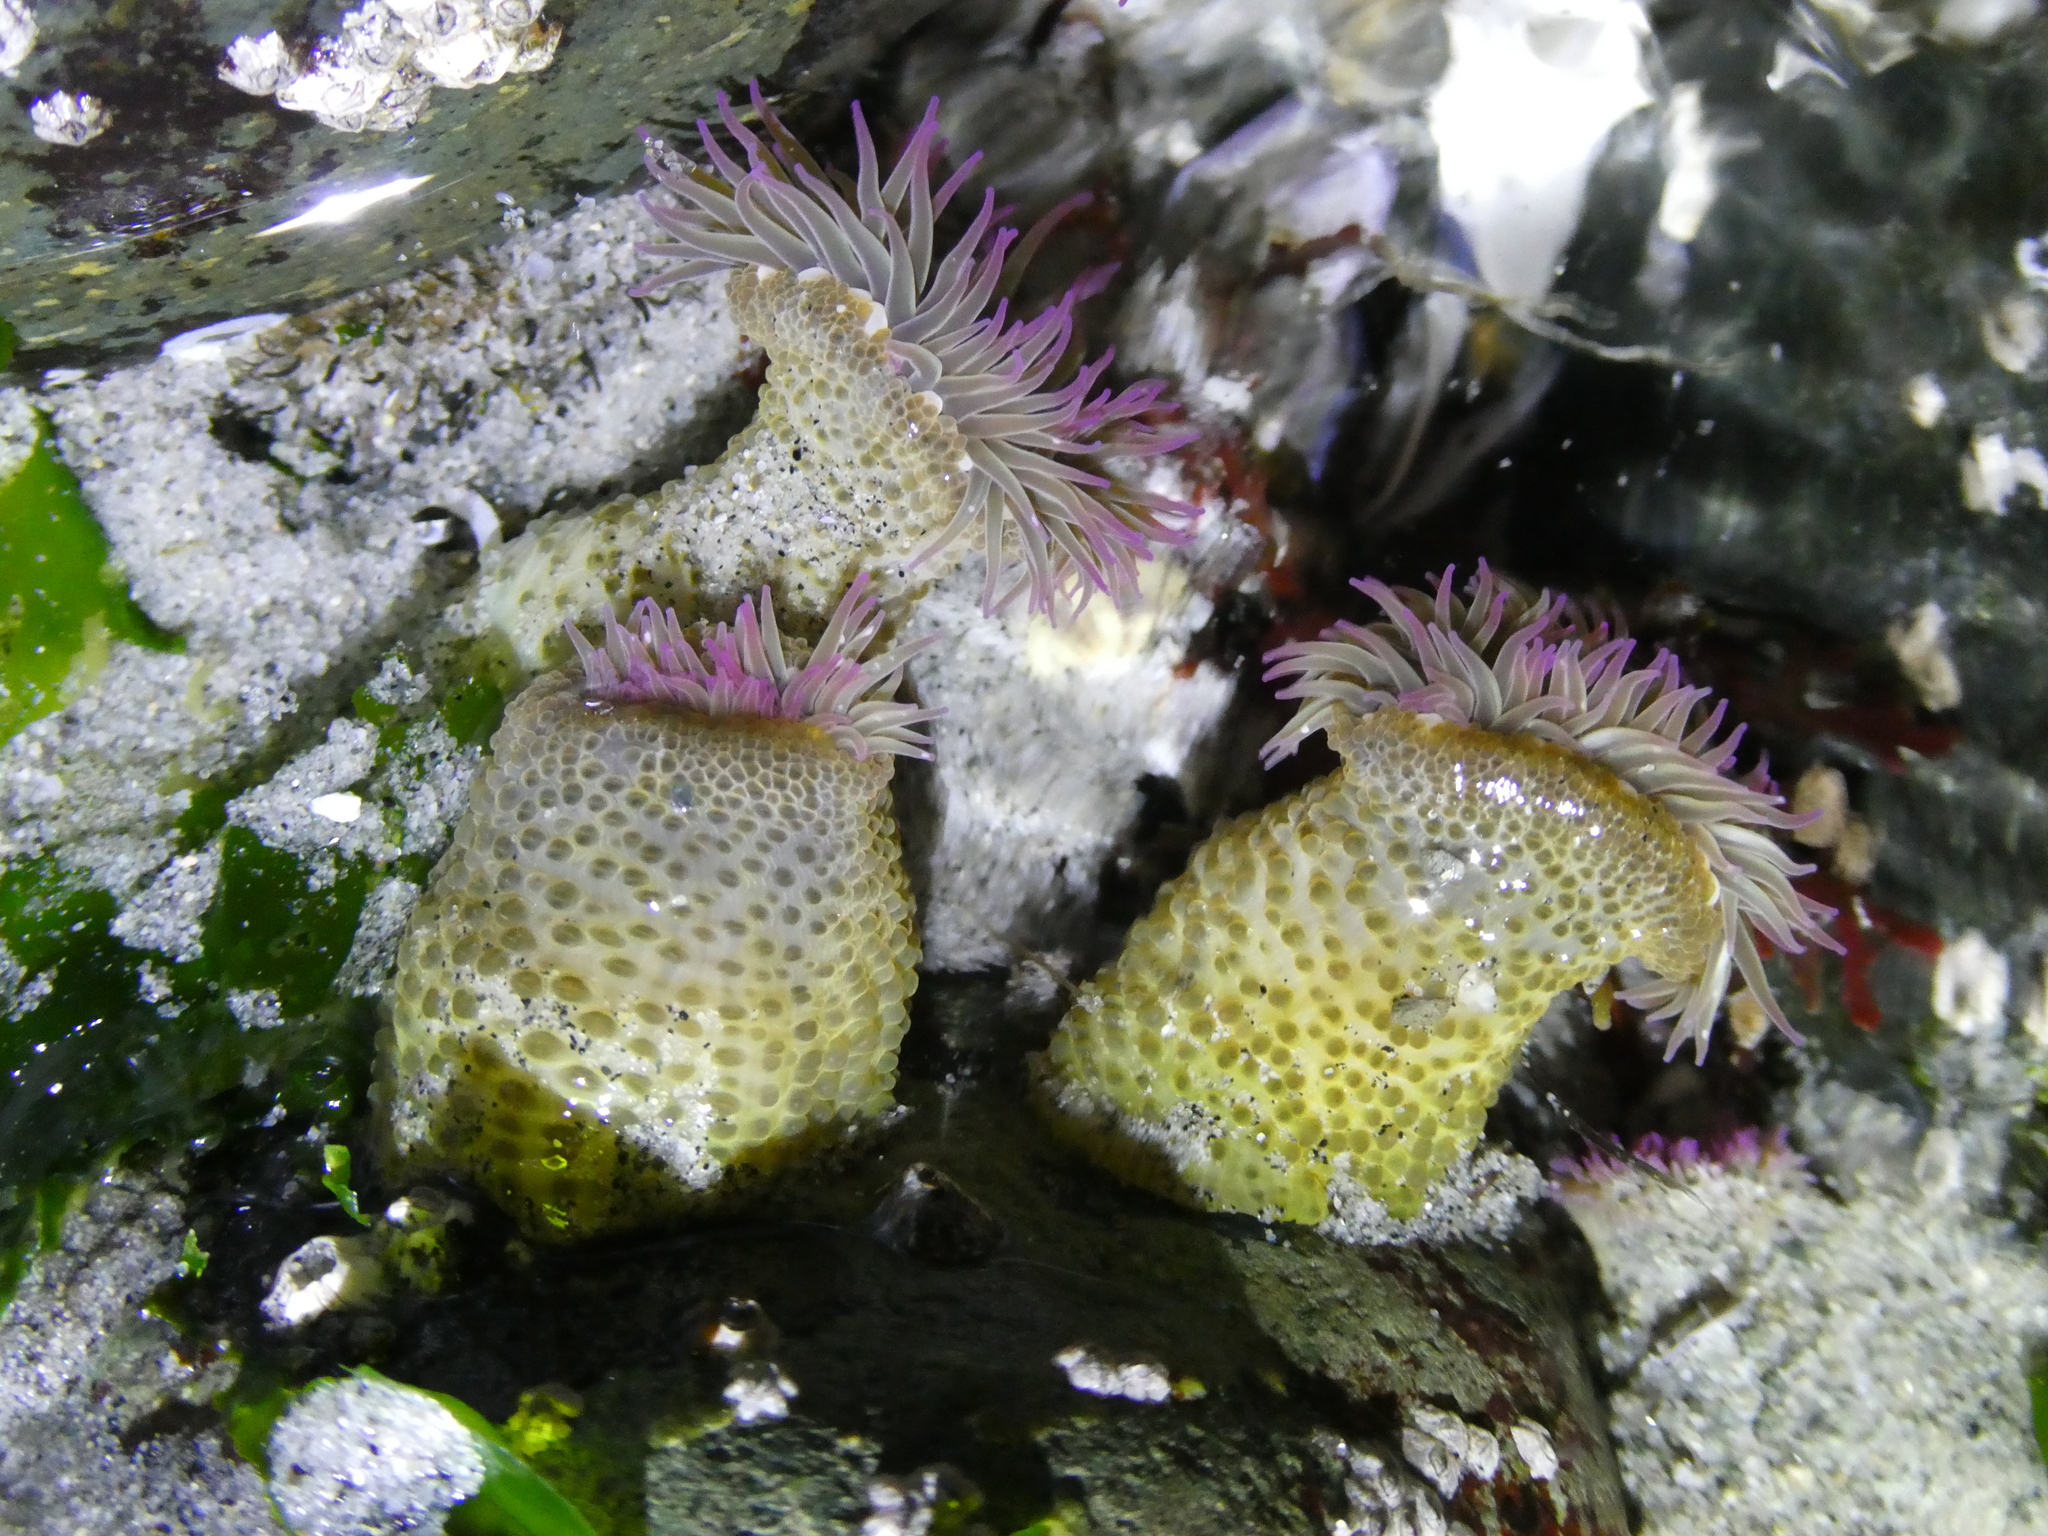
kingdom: Animalia
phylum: Cnidaria
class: Anthozoa
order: Actiniaria
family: Actiniidae
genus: Anthopleura
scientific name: Anthopleura elegantissima
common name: Clonal anemone
